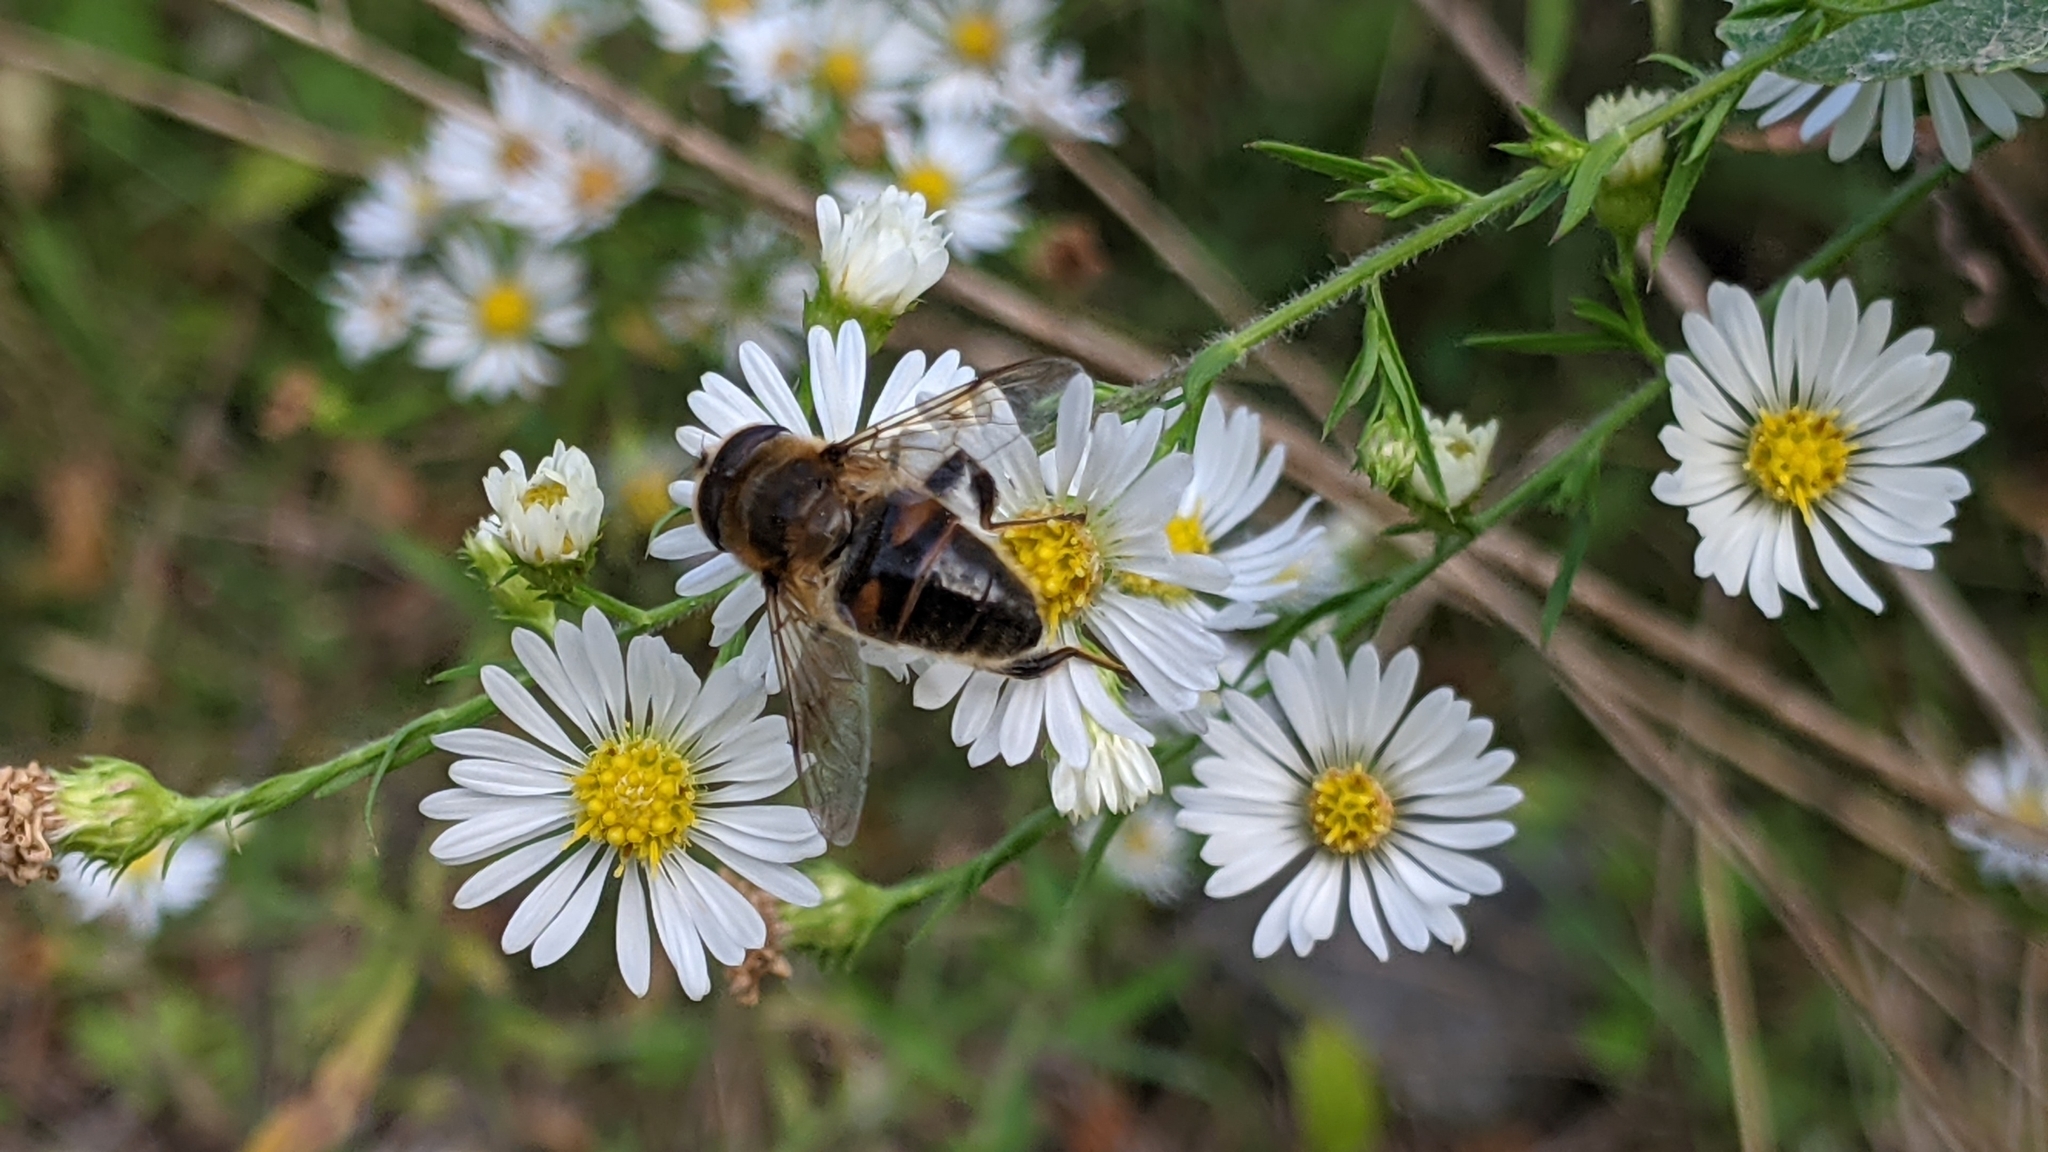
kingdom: Animalia
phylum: Arthropoda
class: Insecta
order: Diptera
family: Syrphidae
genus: Eristalis
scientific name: Eristalis tenax
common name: Drone fly
